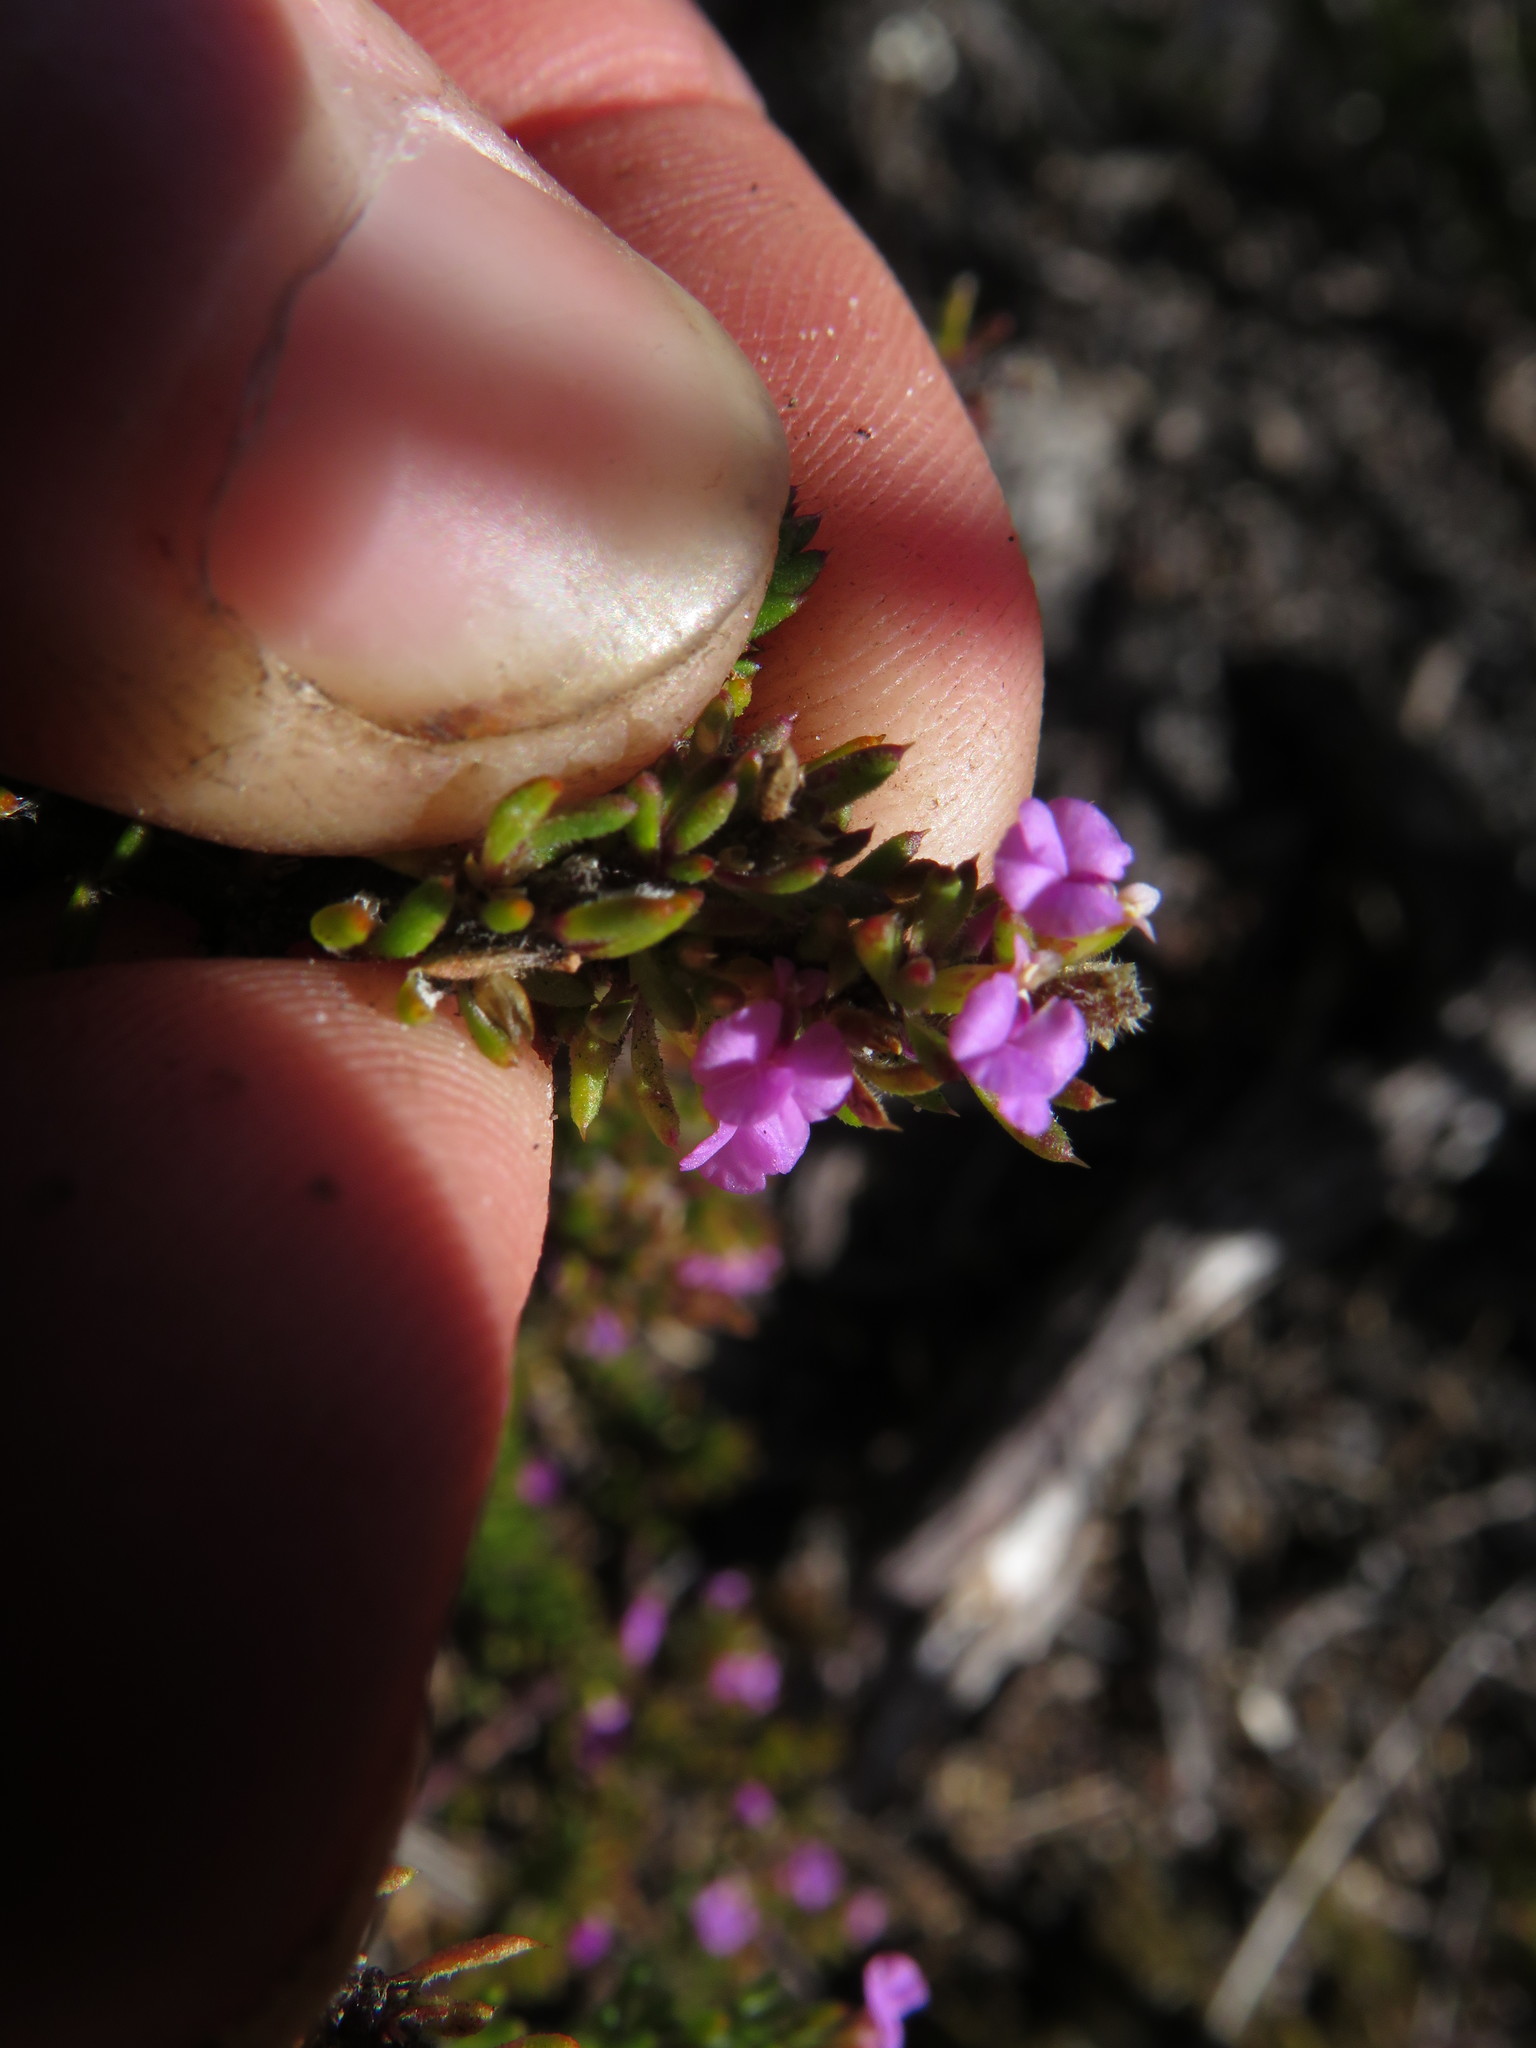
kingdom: Plantae
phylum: Tracheophyta
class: Magnoliopsida
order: Fabales
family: Polygalaceae
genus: Muraltia
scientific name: Muraltia pageae
